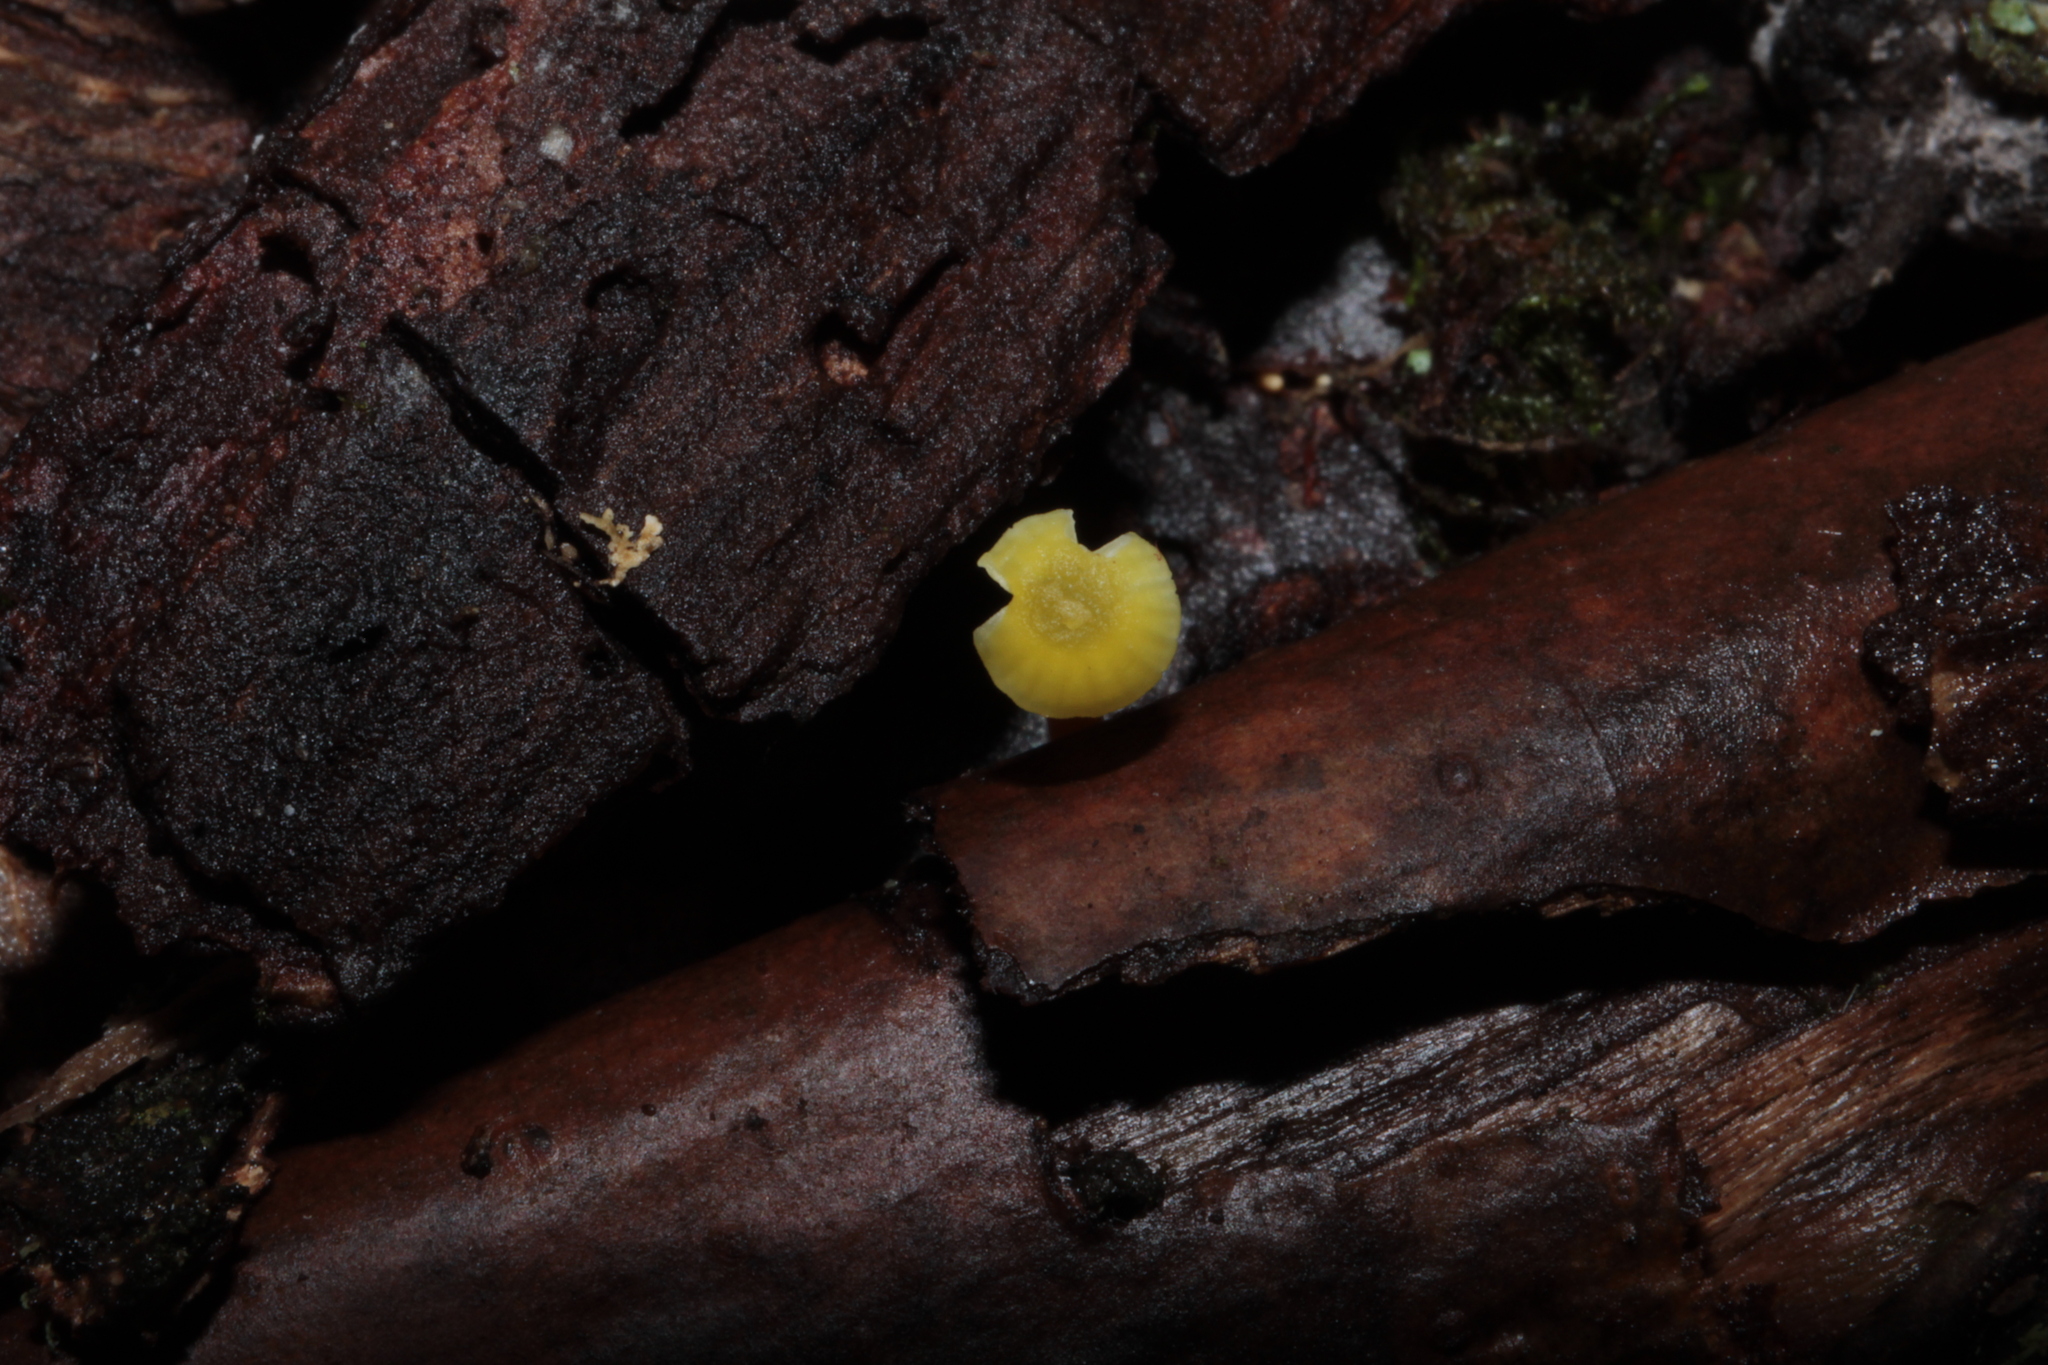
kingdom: Fungi
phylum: Basidiomycota
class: Agaricomycetes
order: Agaricales
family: Hygrophoraceae
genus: Hygrocybe
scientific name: Hygrocybe parvula
